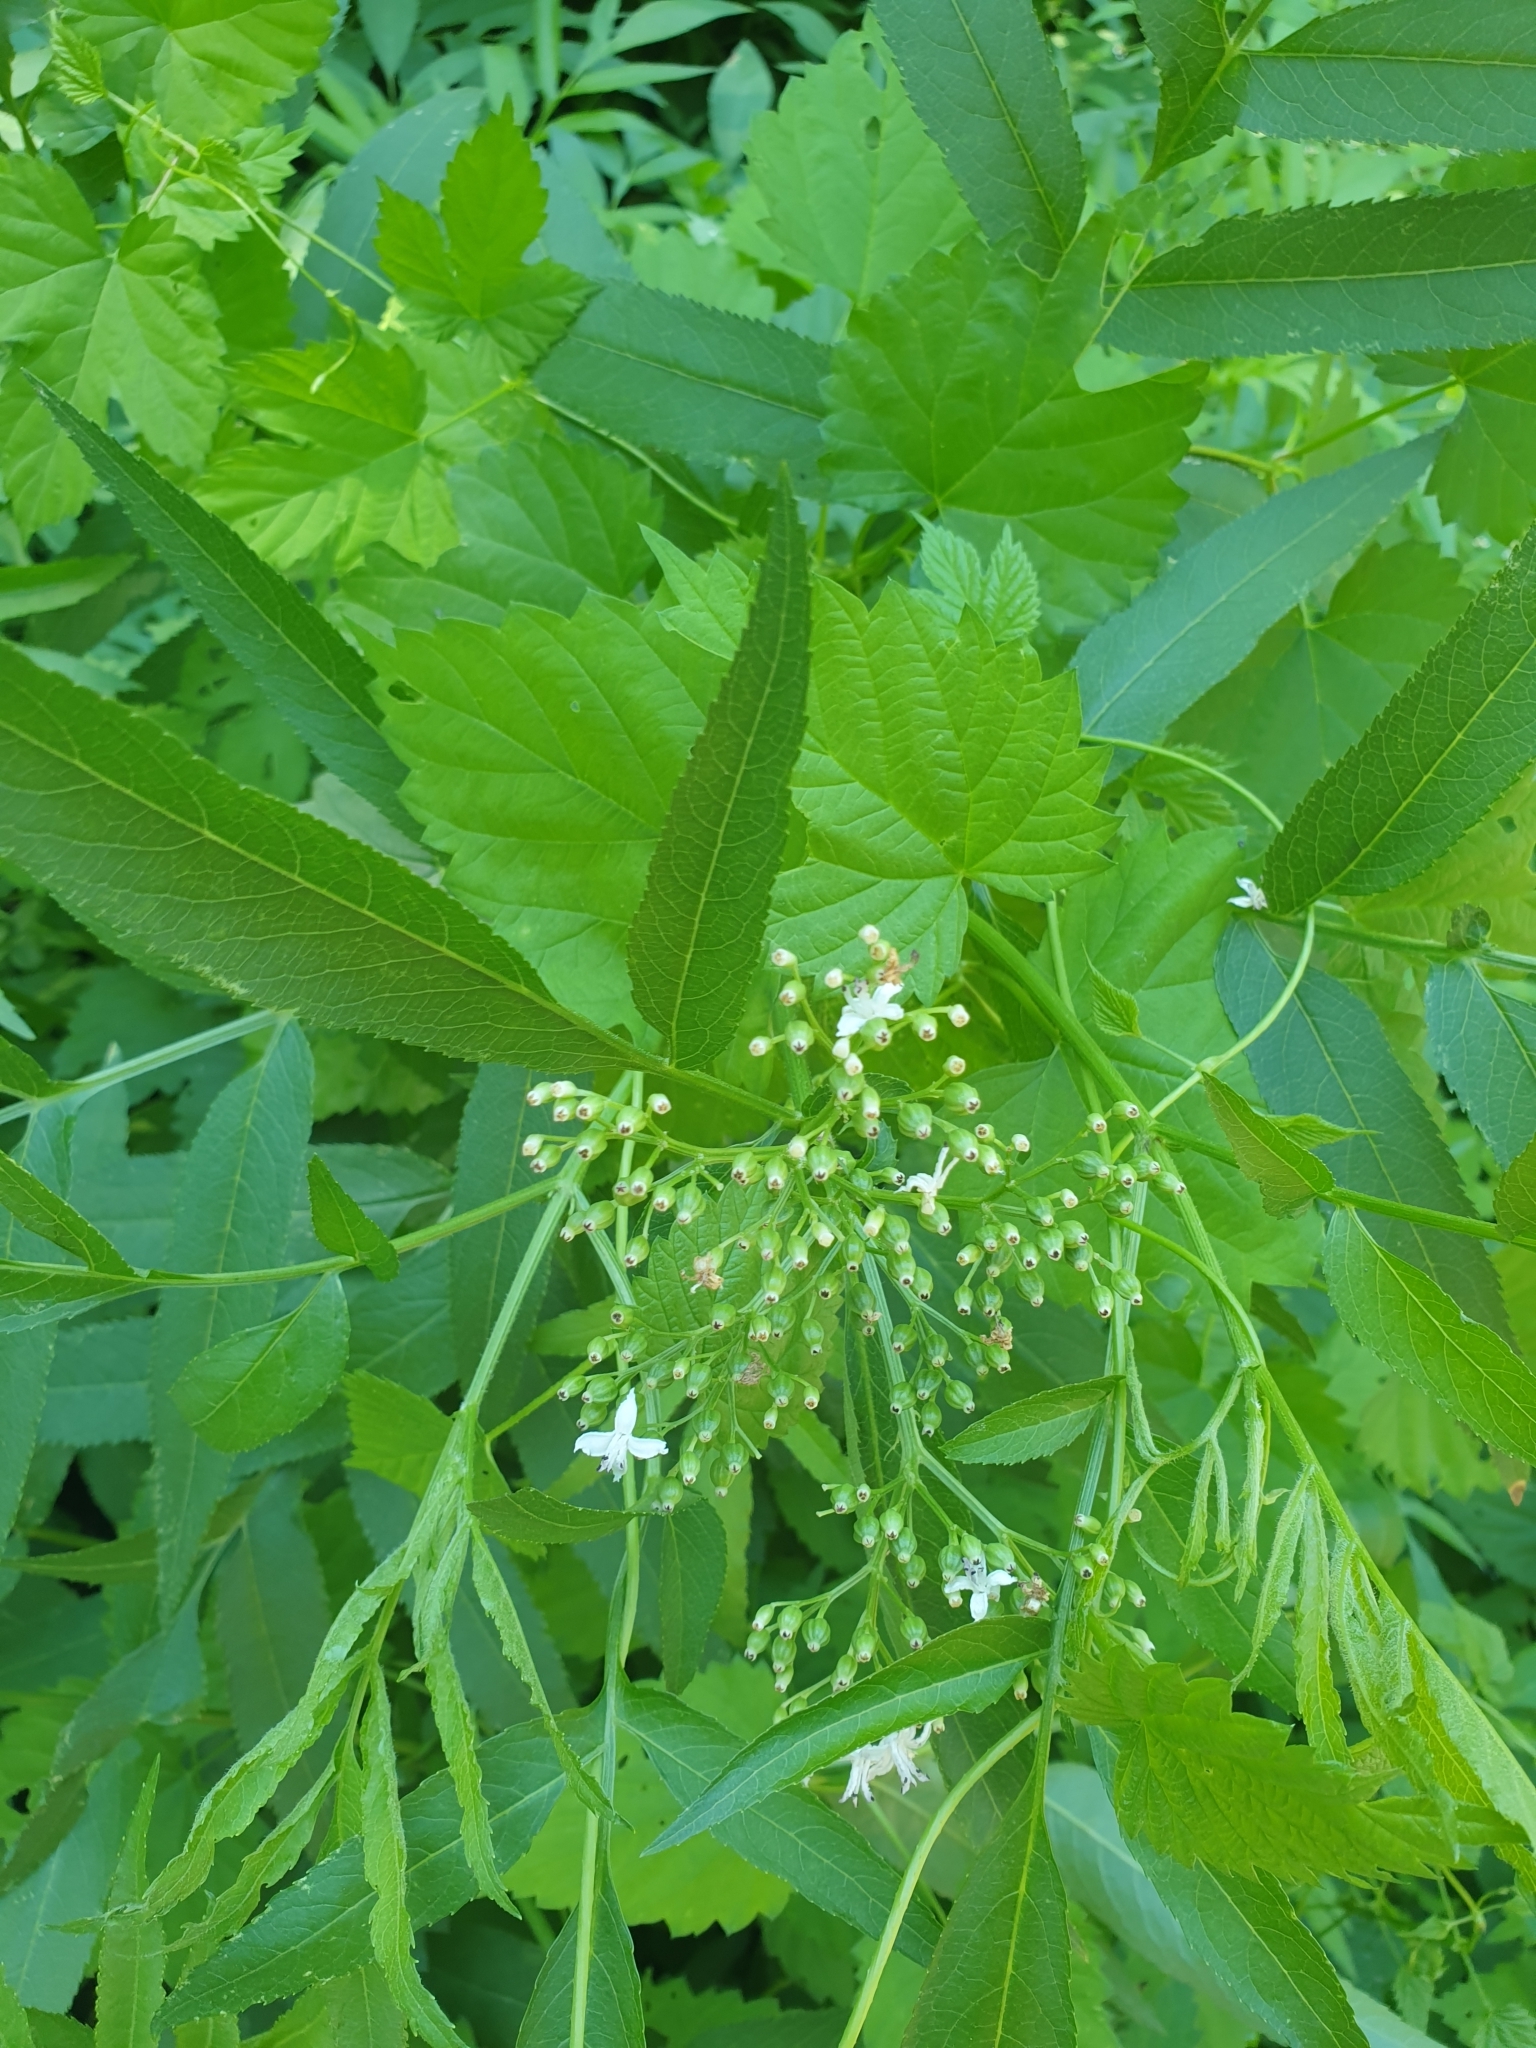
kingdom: Plantae
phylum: Tracheophyta
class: Magnoliopsida
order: Dipsacales
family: Viburnaceae
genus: Sambucus
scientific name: Sambucus ebulus
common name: Dwarf elder
